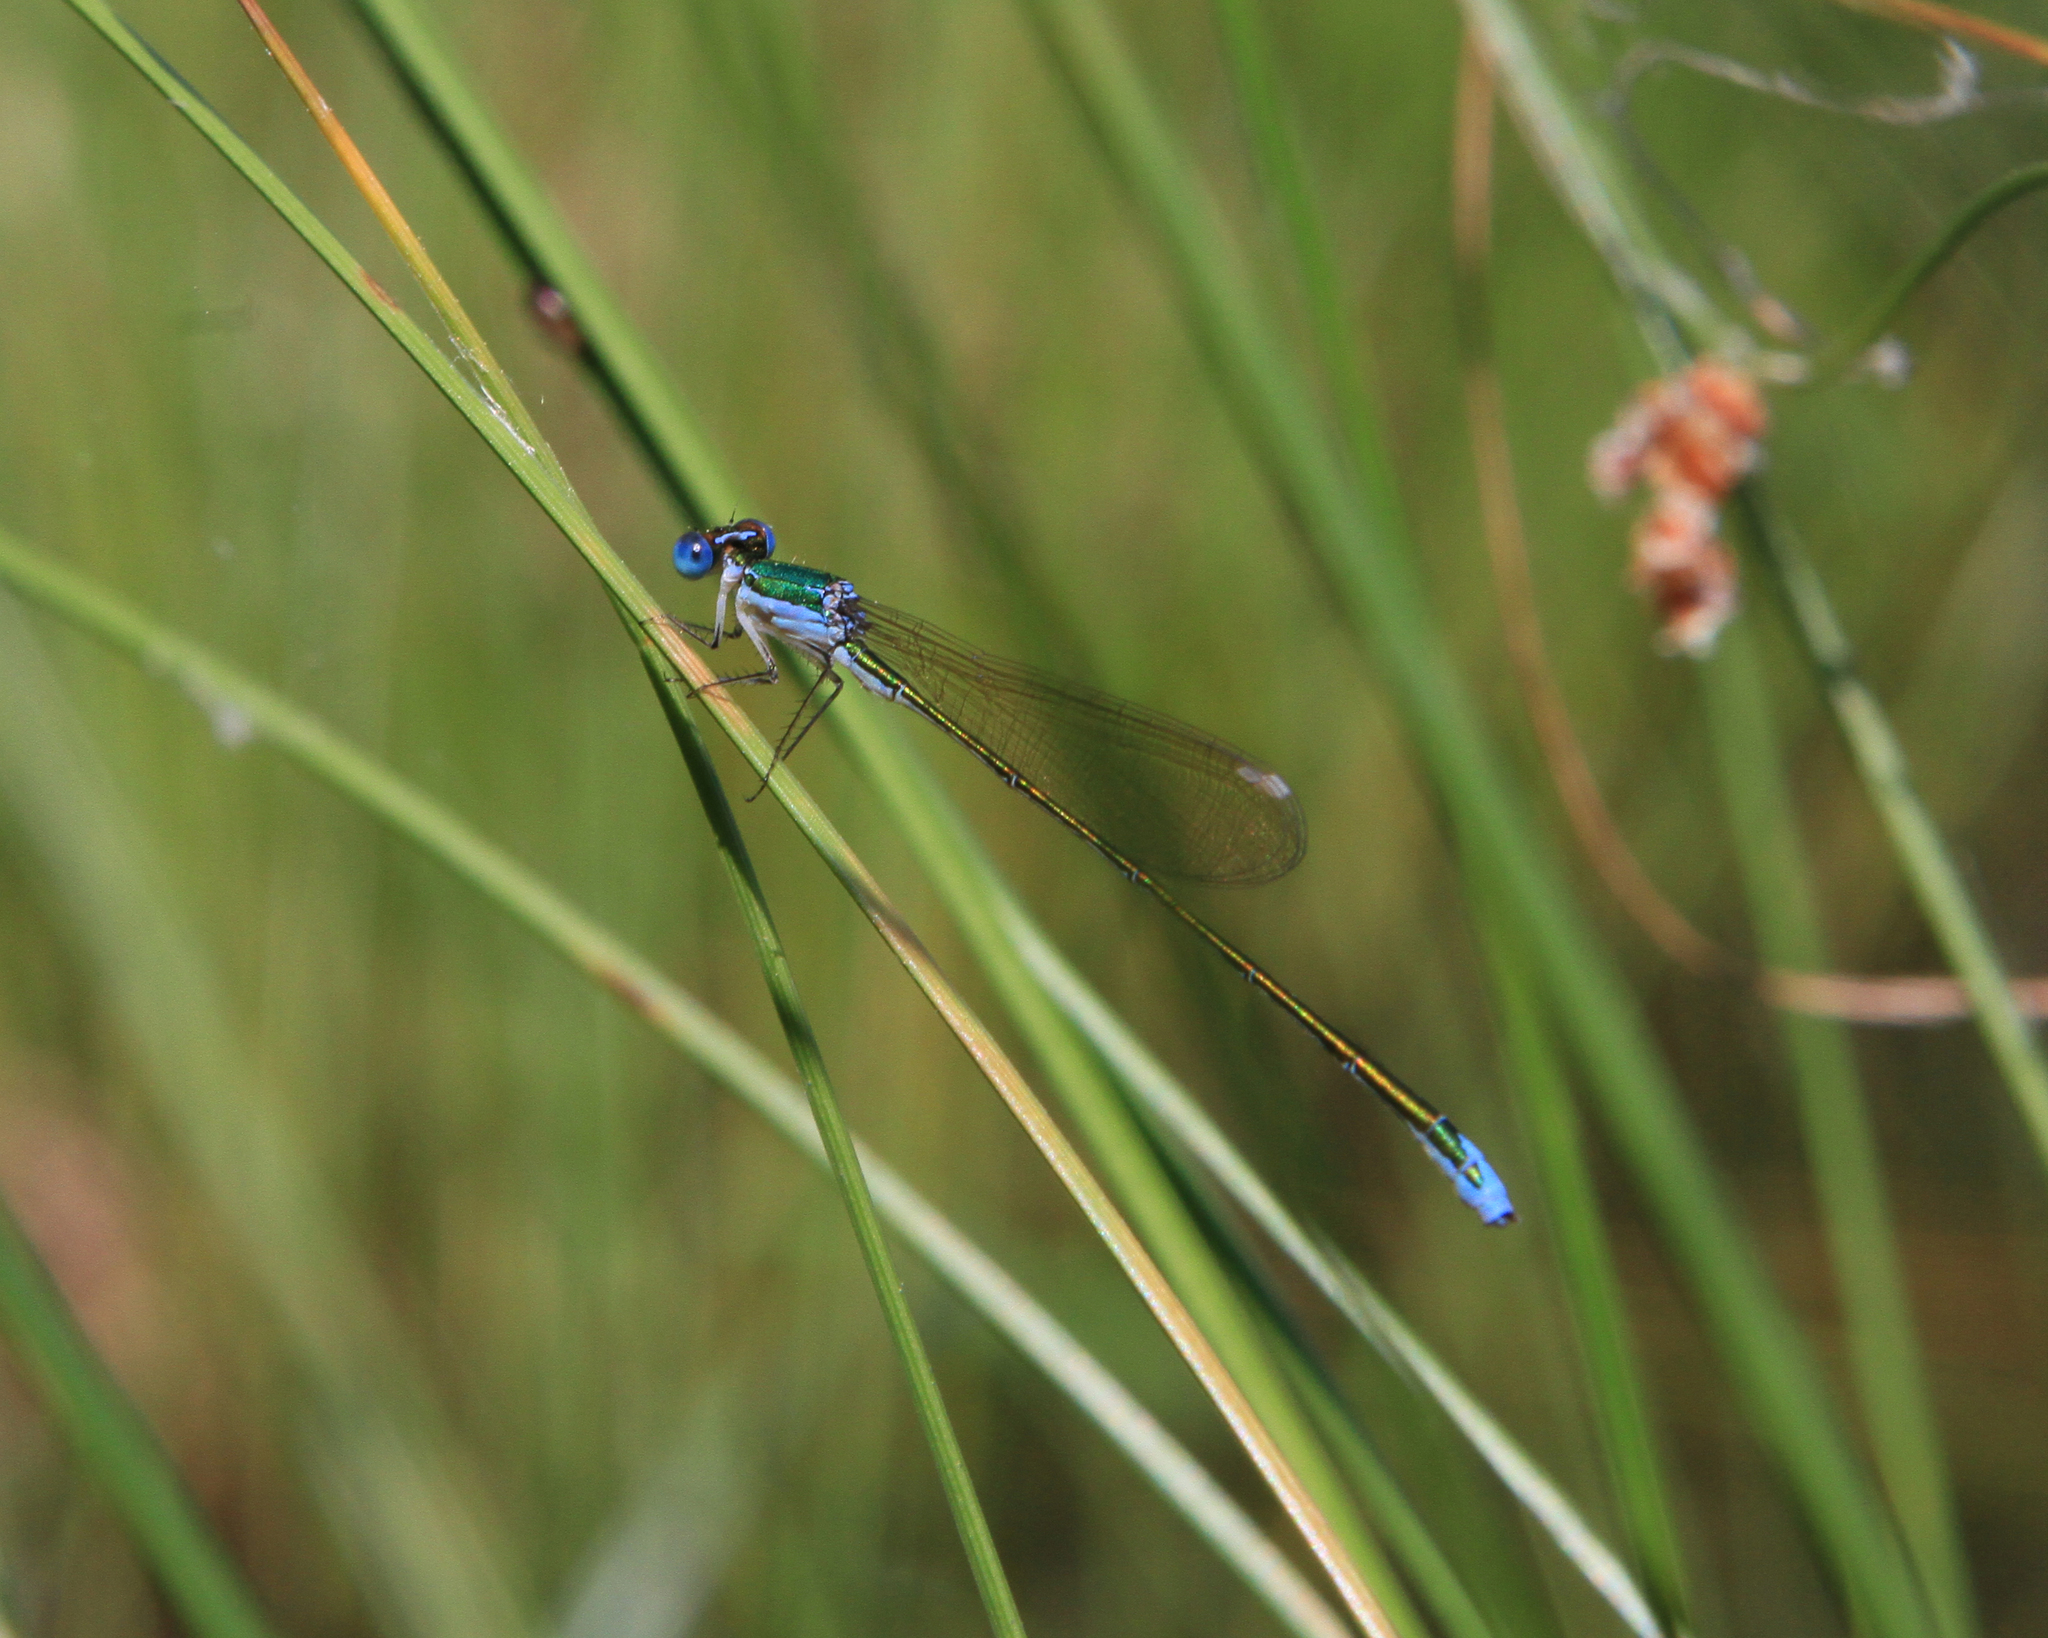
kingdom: Animalia
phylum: Arthropoda
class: Insecta
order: Odonata
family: Coenagrionidae
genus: Nehalennia
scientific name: Nehalennia speciosa
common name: Sedgling
